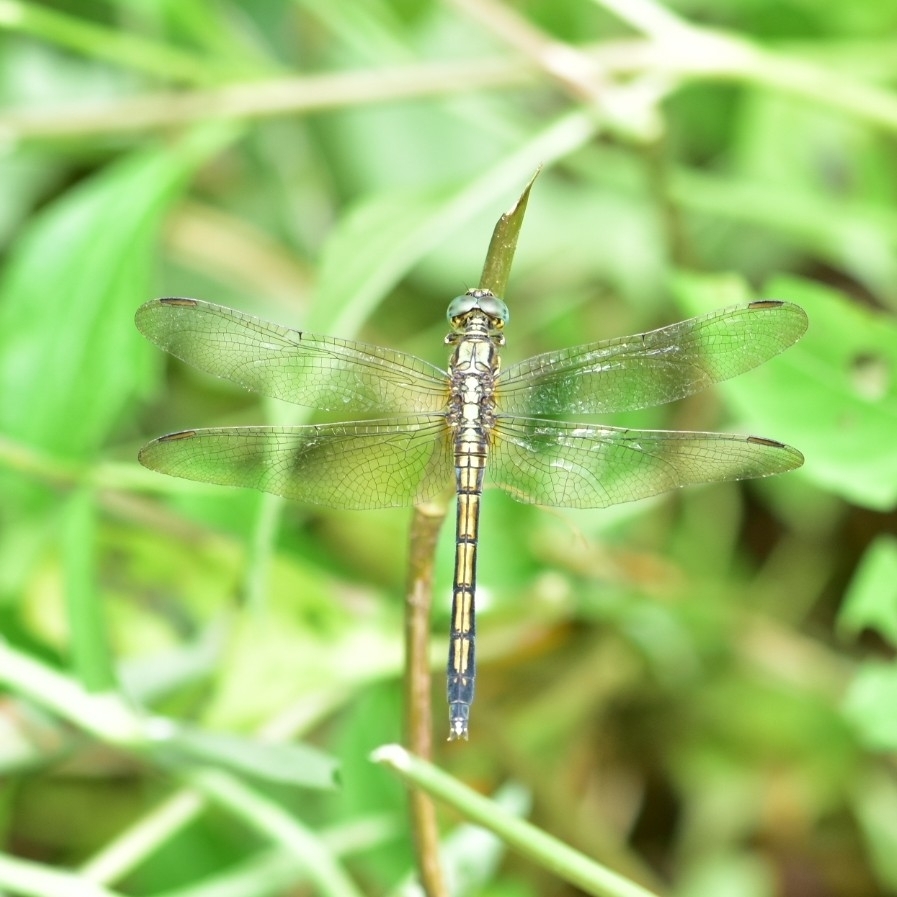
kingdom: Animalia
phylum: Arthropoda
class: Insecta
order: Odonata
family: Libellulidae
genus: Orthetrum
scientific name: Orthetrum luzonicum
